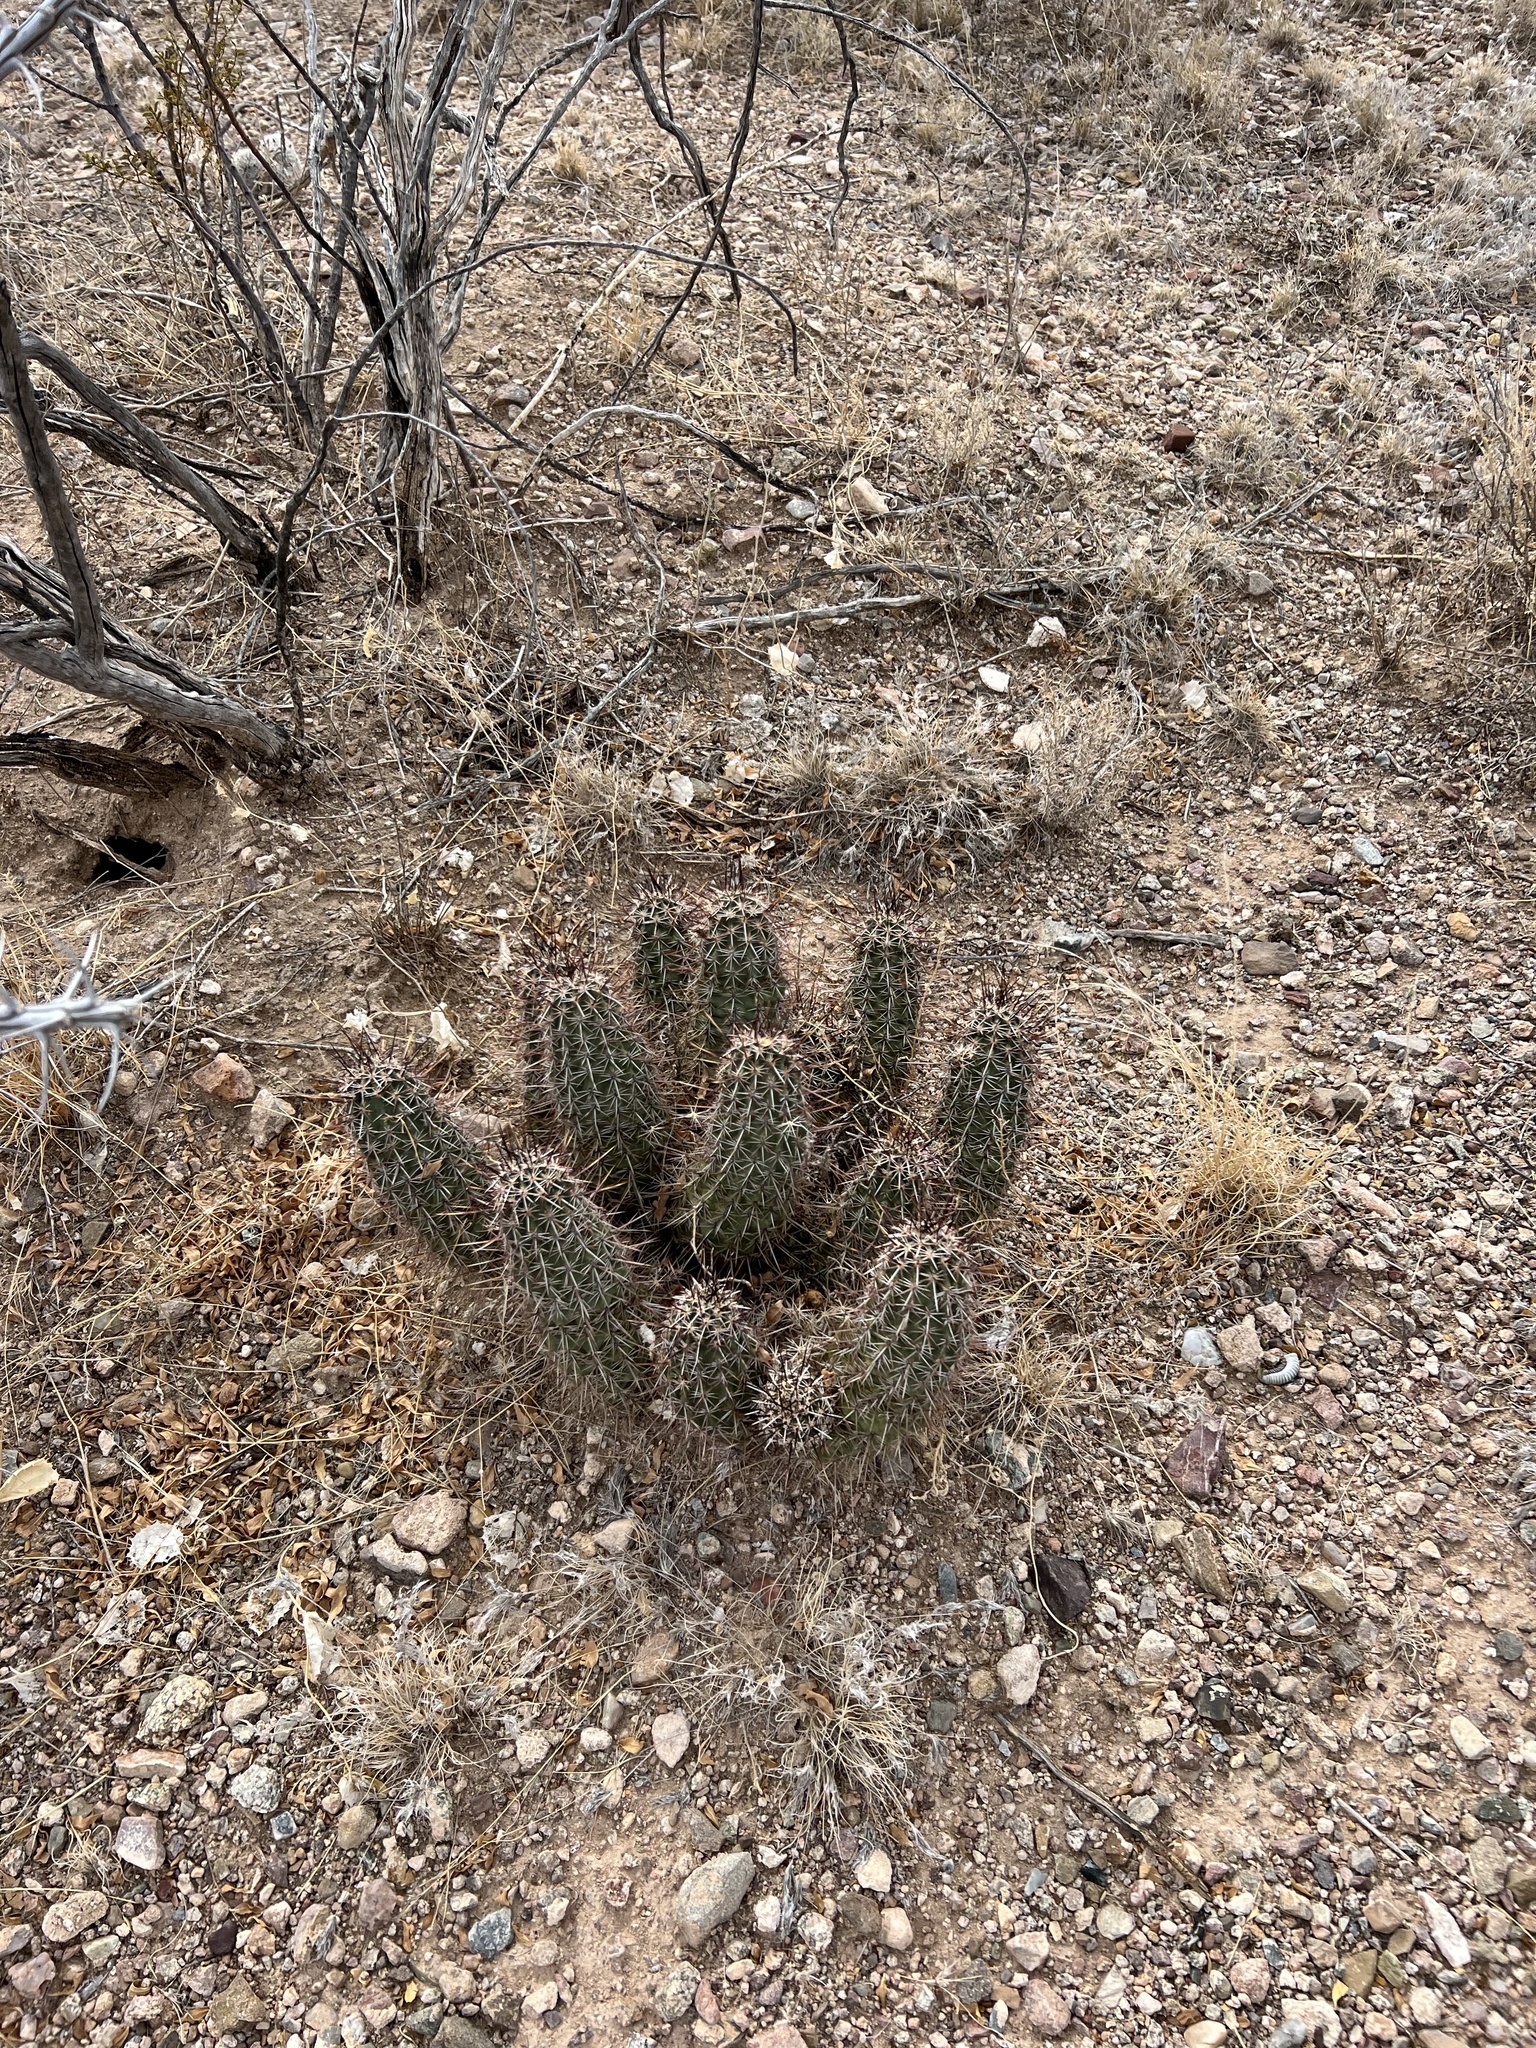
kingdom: Plantae
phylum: Tracheophyta
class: Magnoliopsida
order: Caryophyllales
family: Cactaceae
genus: Echinocereus
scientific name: Echinocereus fasciculatus
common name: Bundle hedgehog
